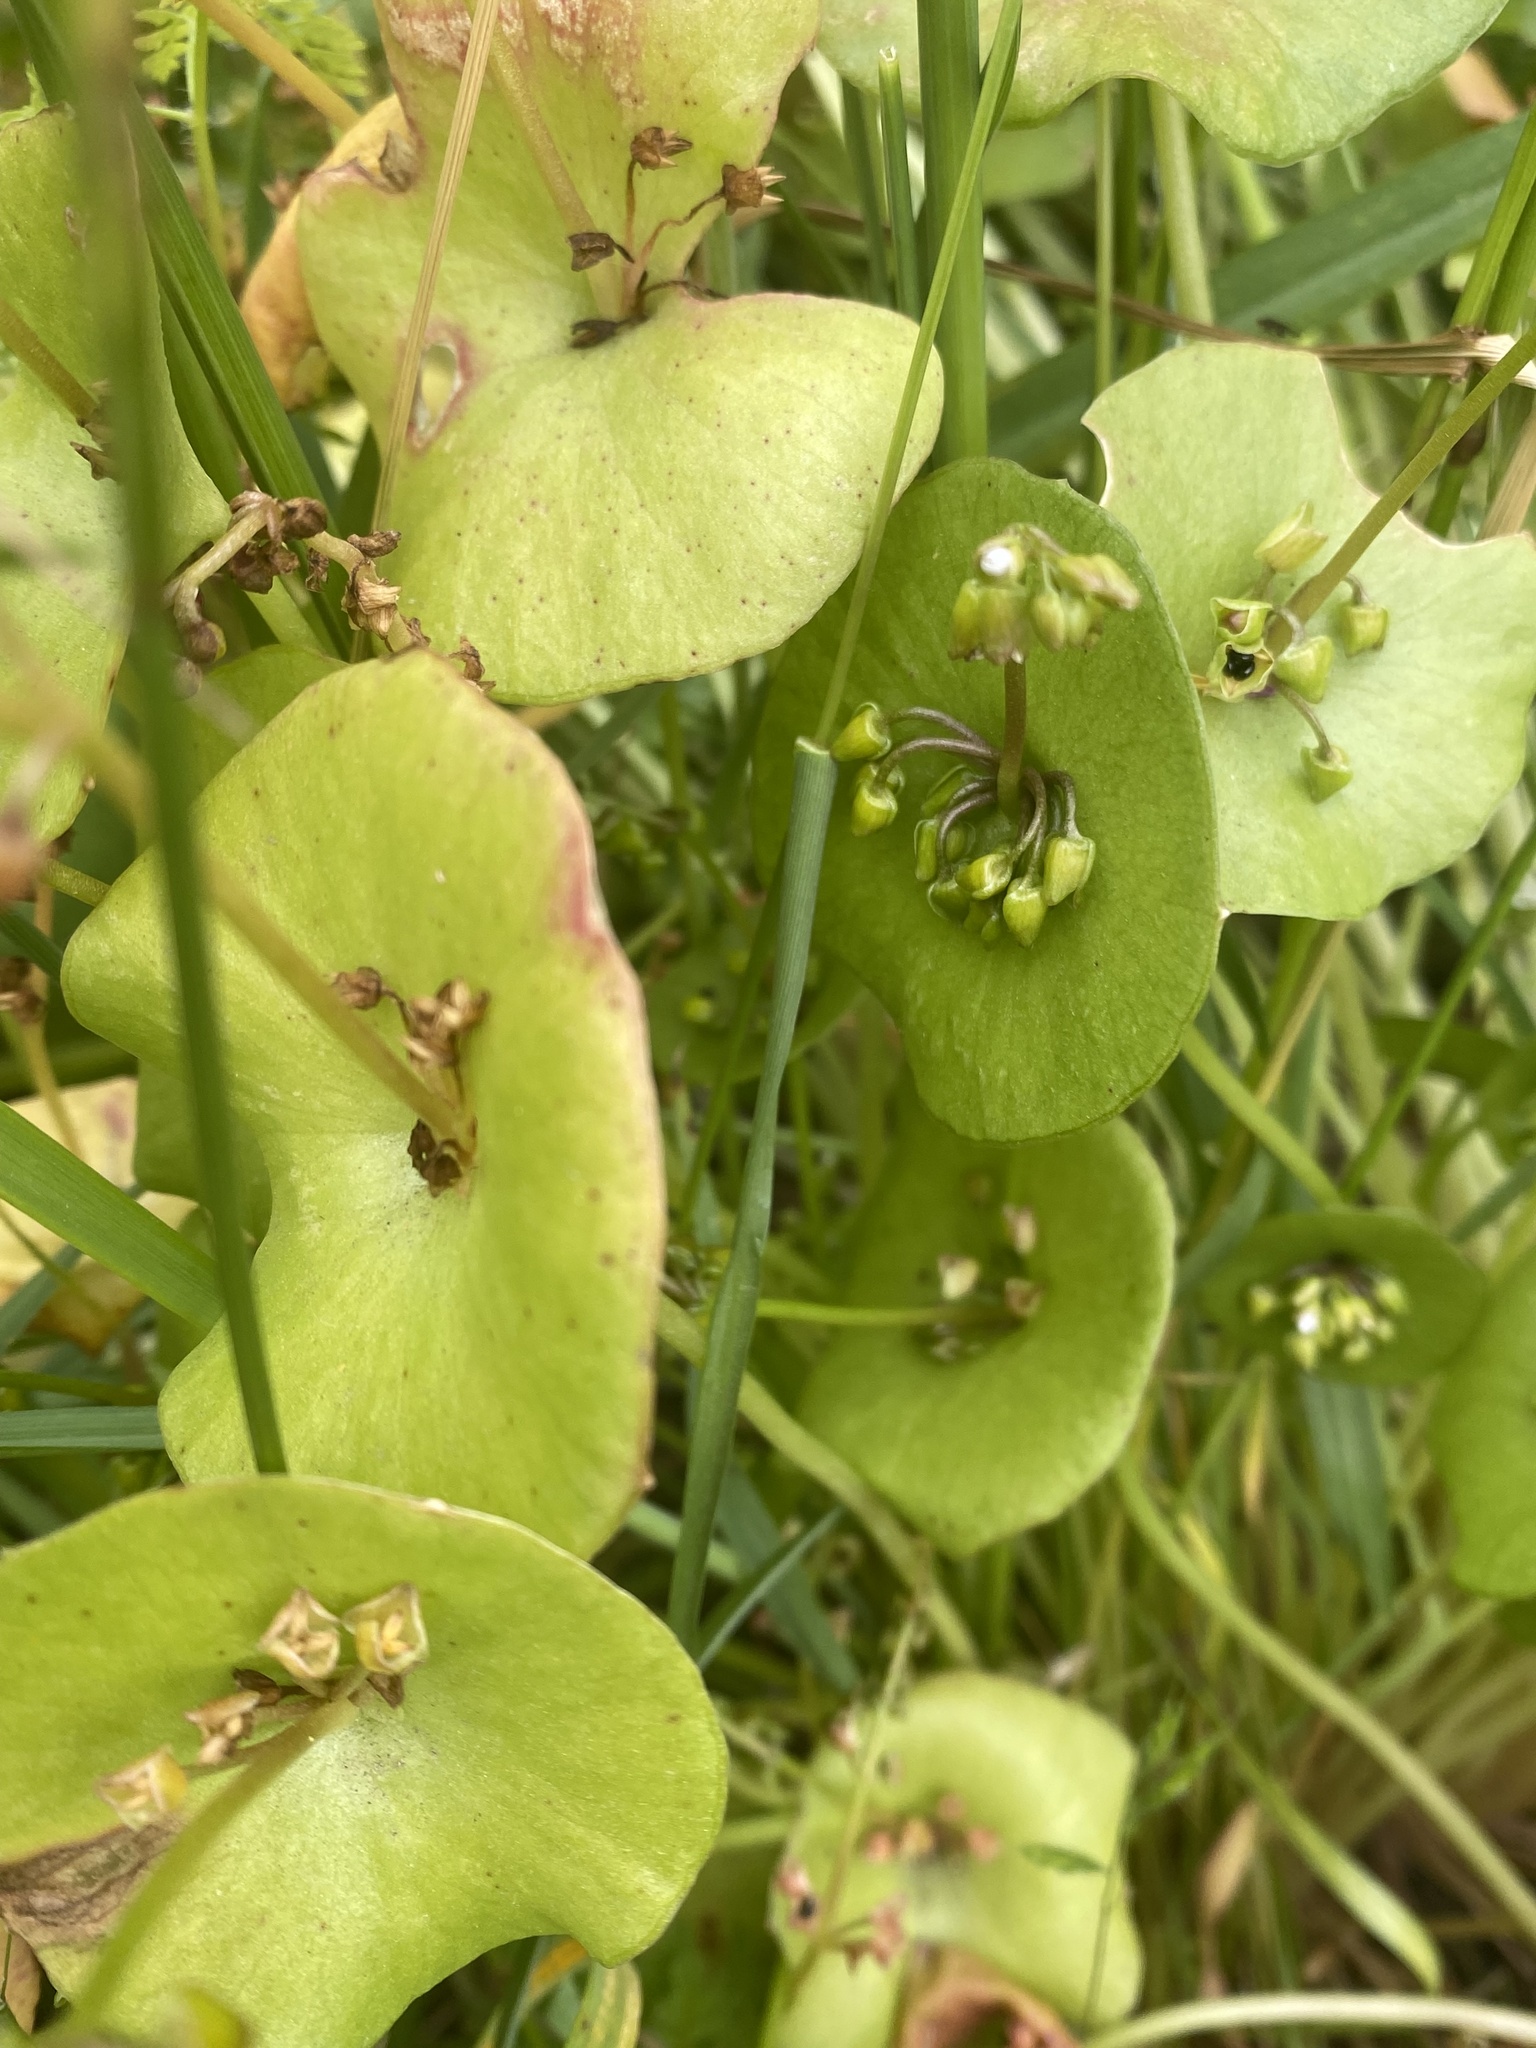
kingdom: Plantae
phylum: Tracheophyta
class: Magnoliopsida
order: Caryophyllales
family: Montiaceae
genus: Claytonia
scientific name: Claytonia perfoliata
